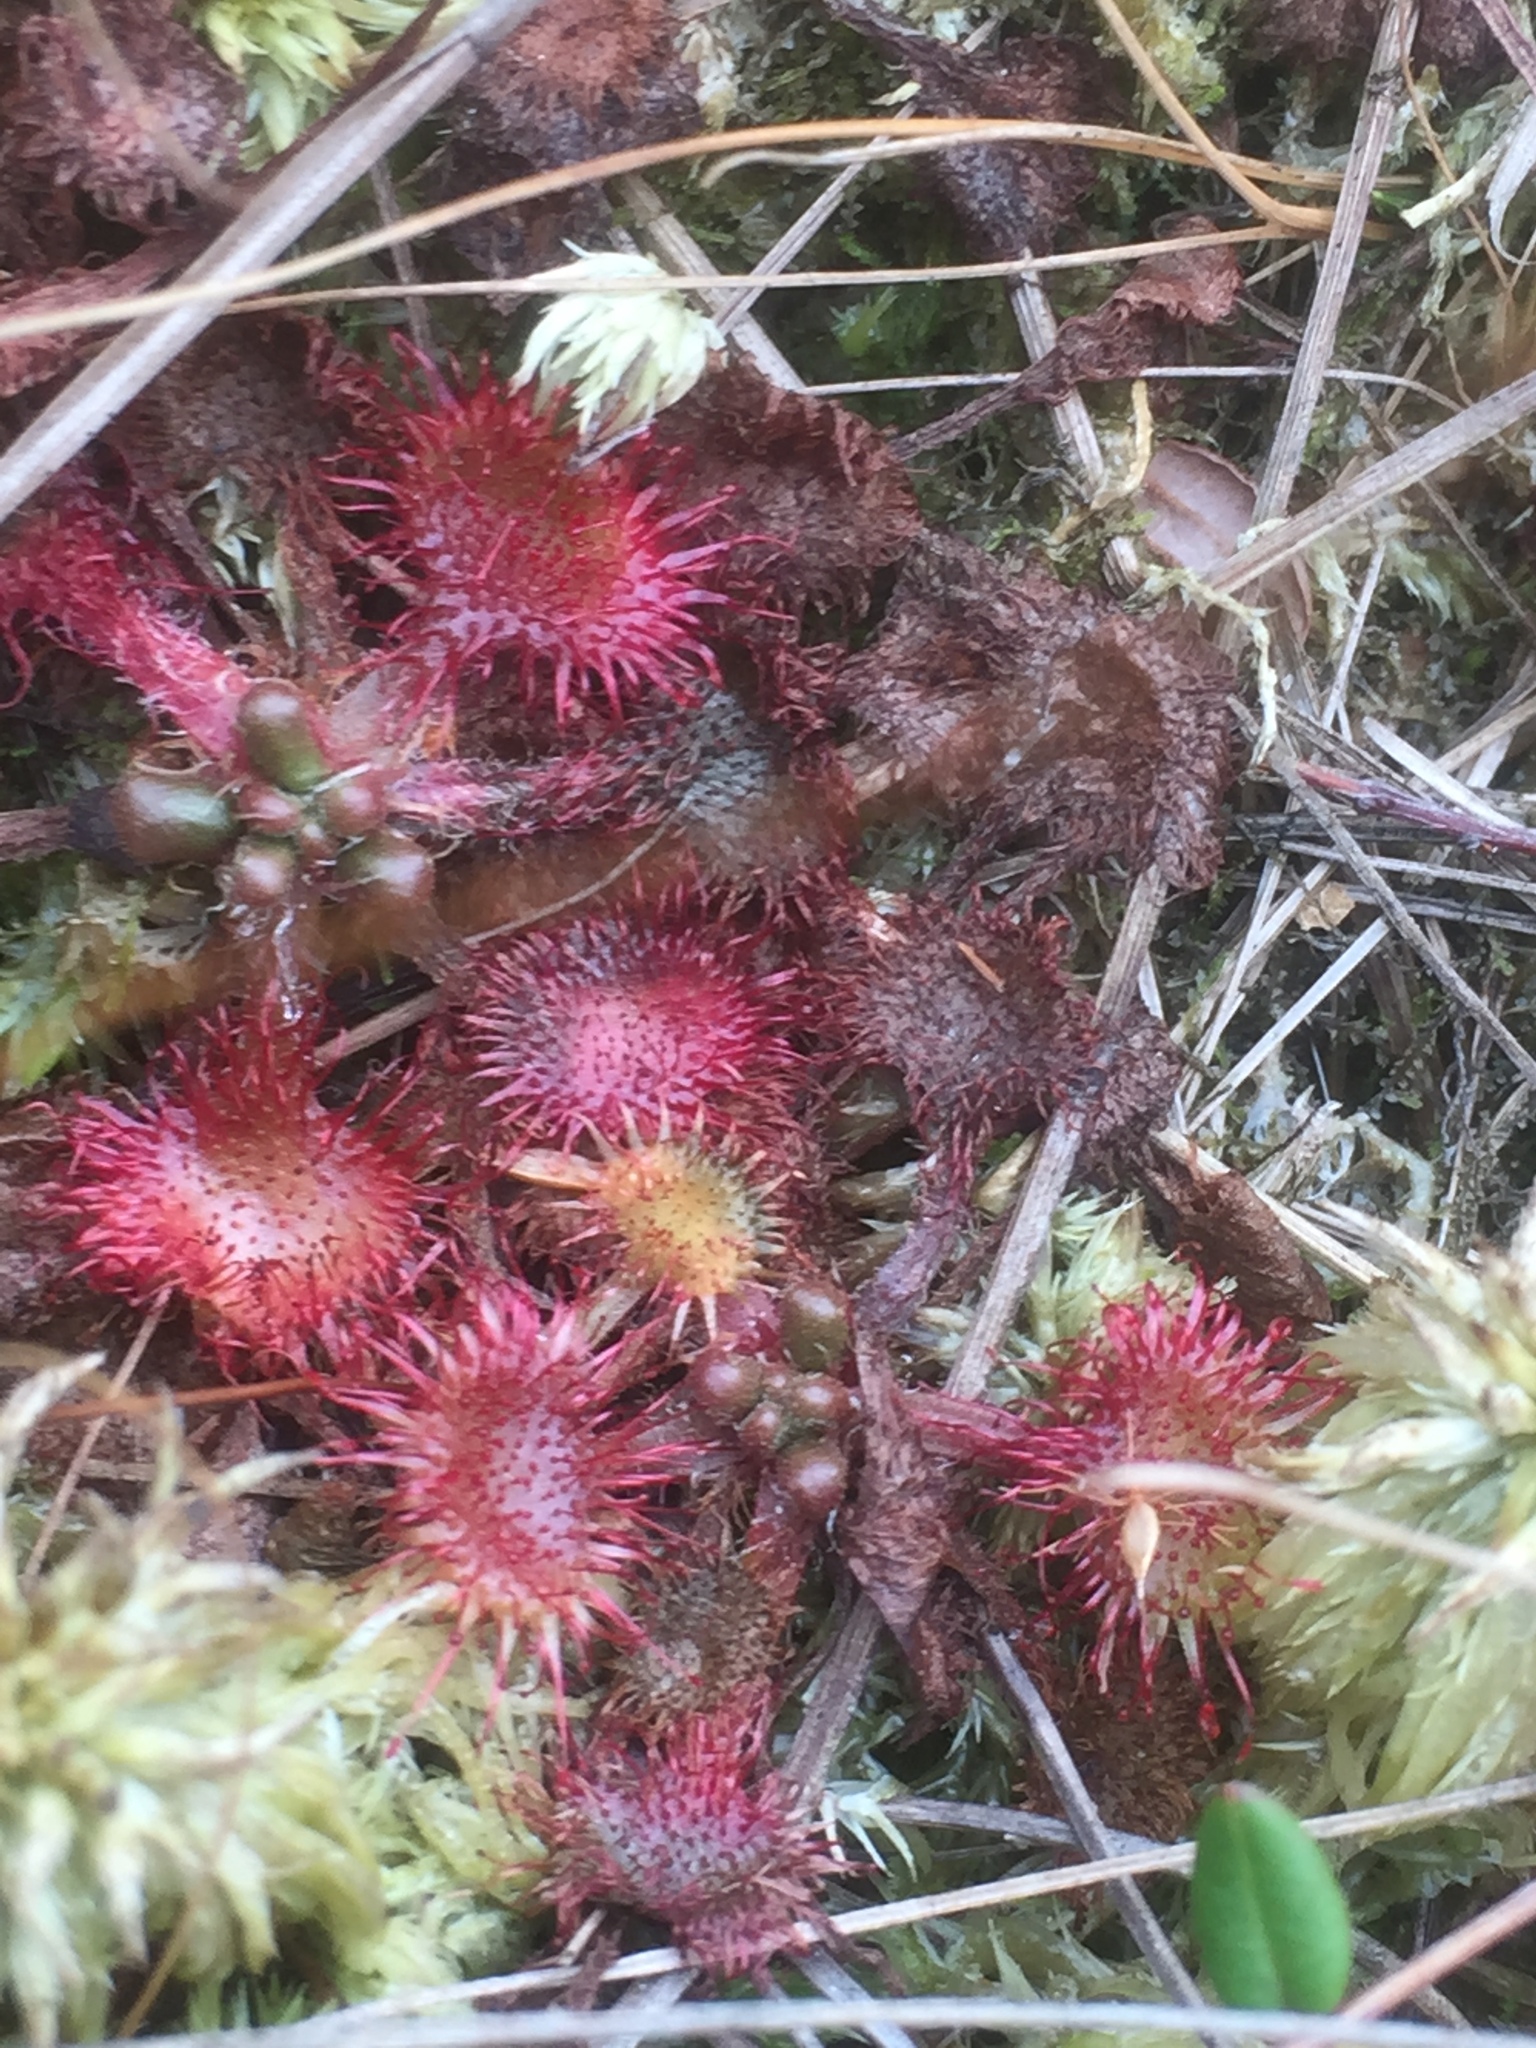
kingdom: Plantae
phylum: Tracheophyta
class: Magnoliopsida
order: Caryophyllales
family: Droseraceae
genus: Drosera
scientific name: Drosera rotundifolia
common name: Round-leaved sundew
